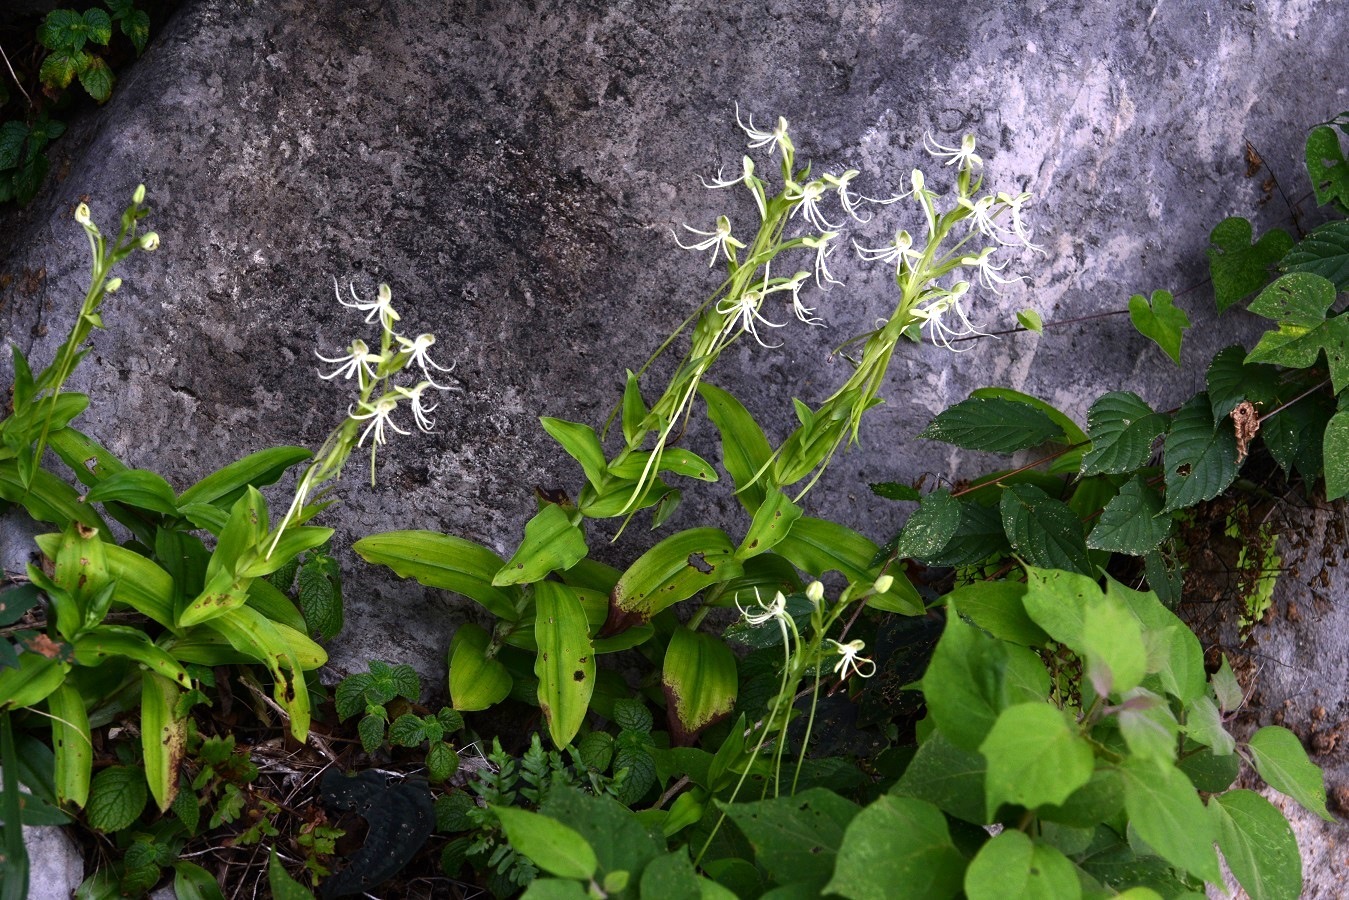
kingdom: Plantae
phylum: Tracheophyta
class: Liliopsida
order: Asparagales
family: Orchidaceae
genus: Habenaria
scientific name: Habenaria macroceratitis
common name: Big-horn bog orchid
